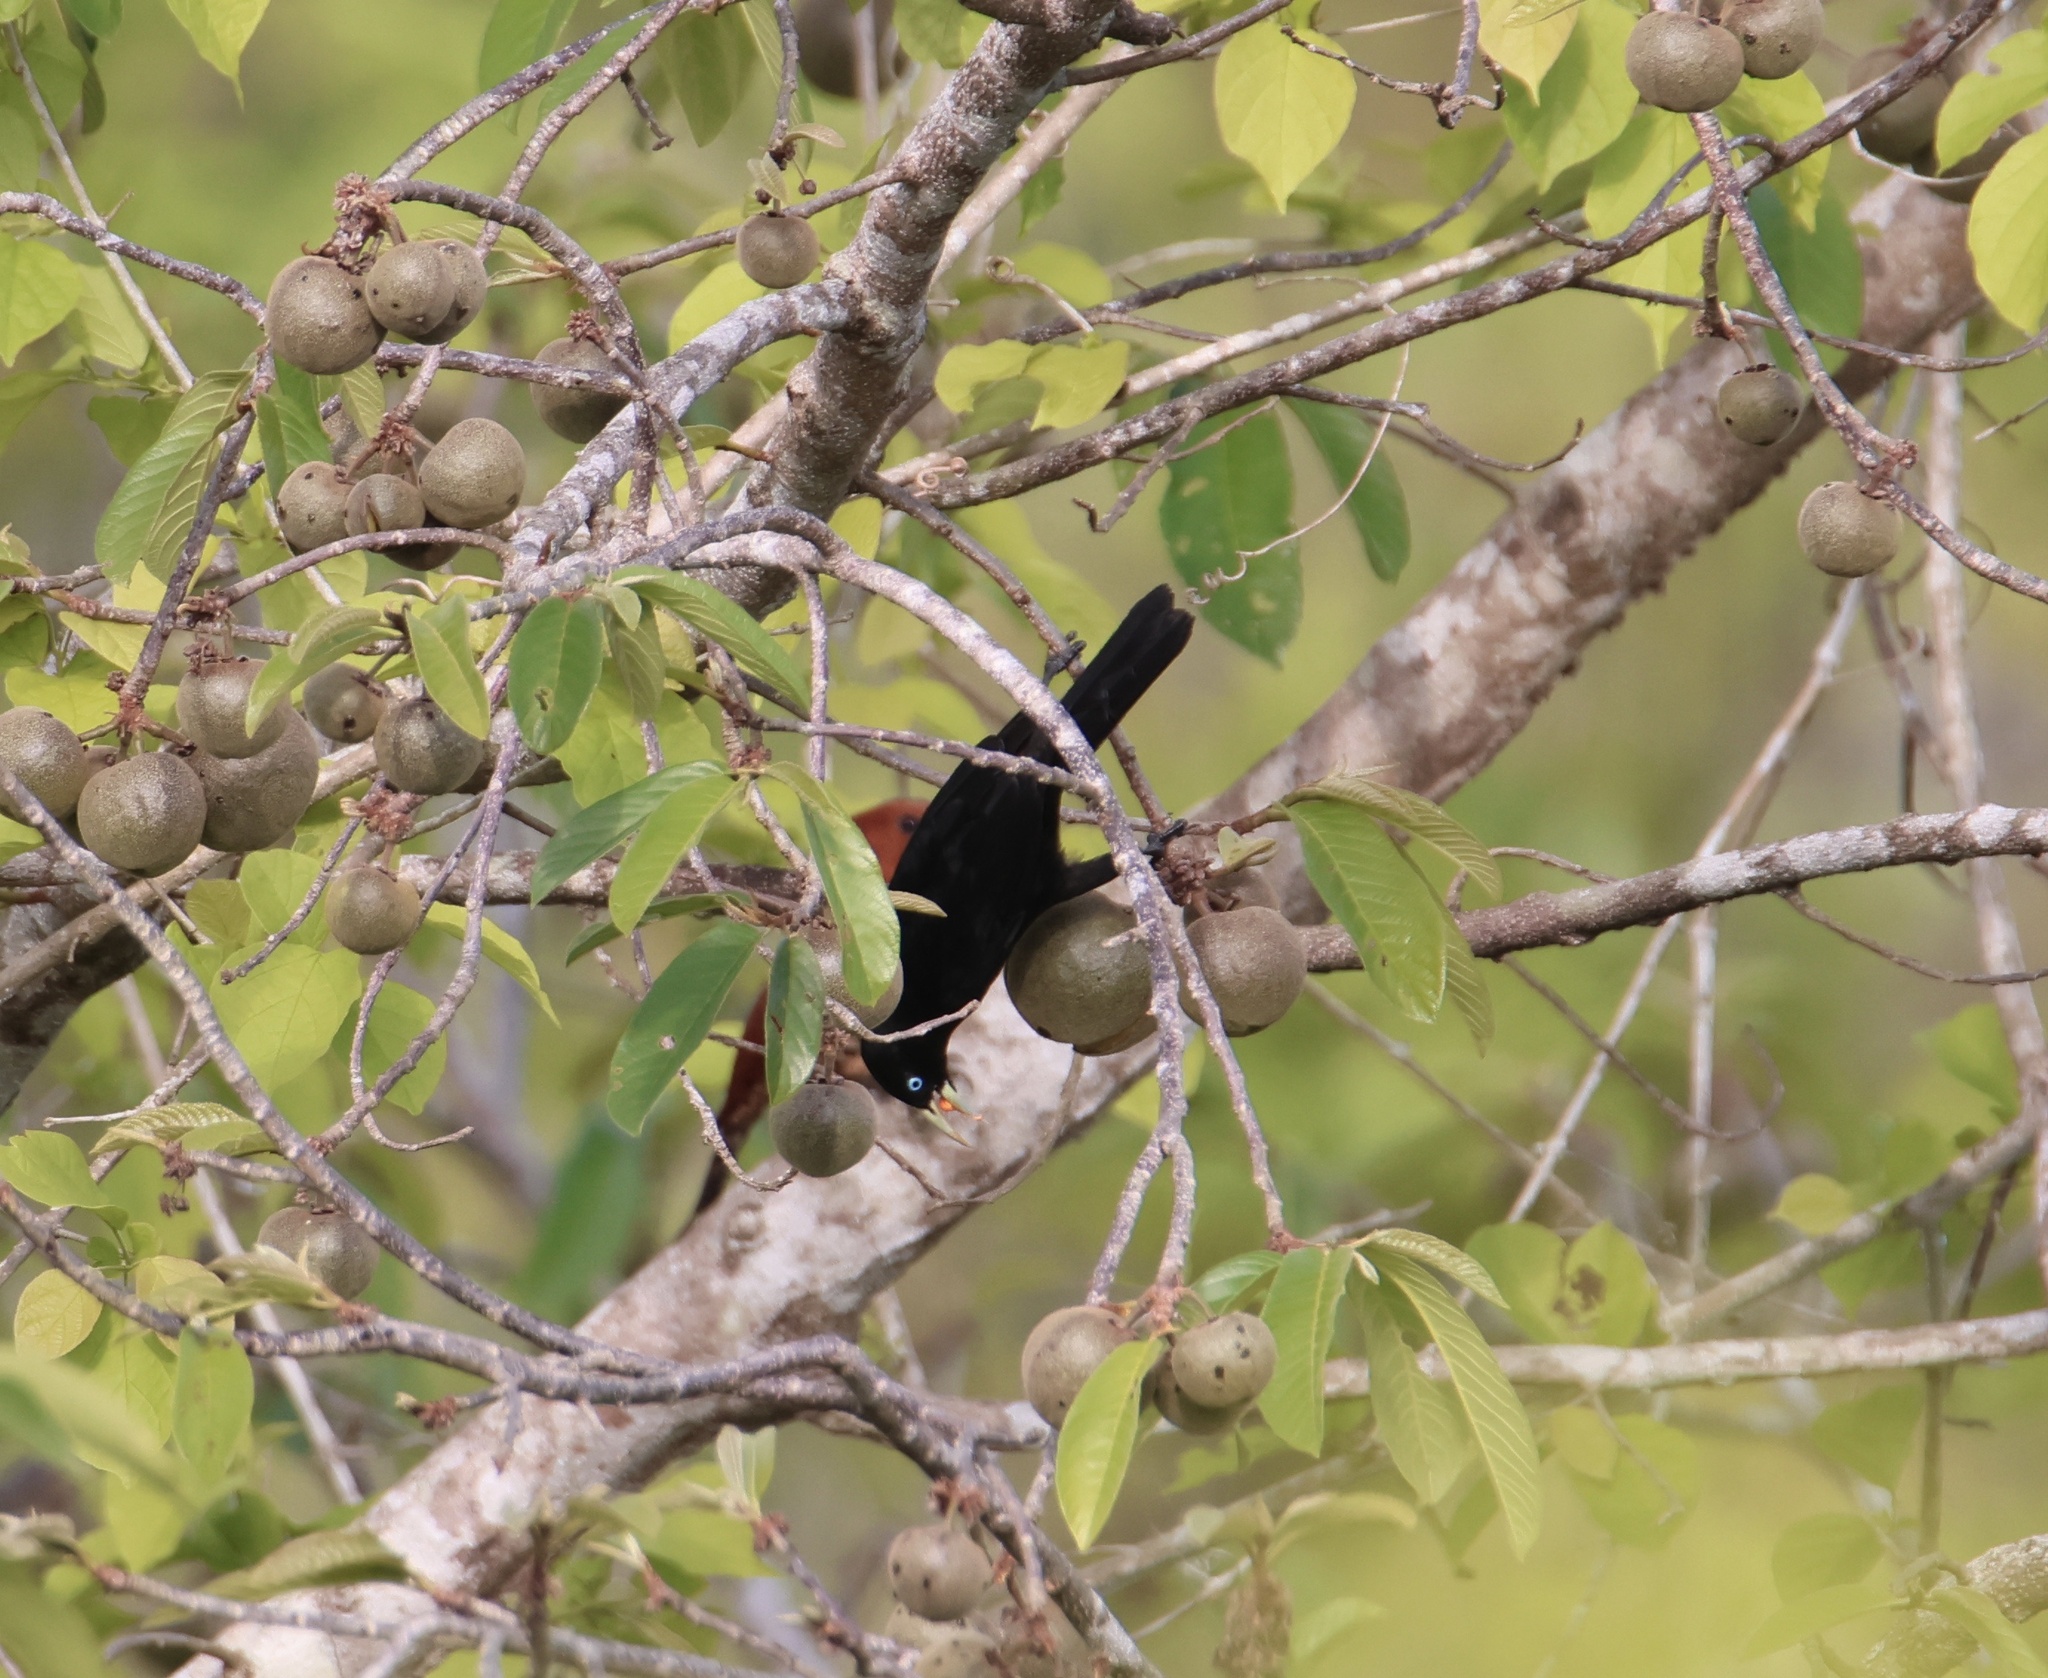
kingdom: Animalia
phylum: Chordata
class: Aves
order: Passeriformes
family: Icteridae
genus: Cacicus
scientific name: Cacicus uropygialis
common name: Scarlet-rumped cacique
